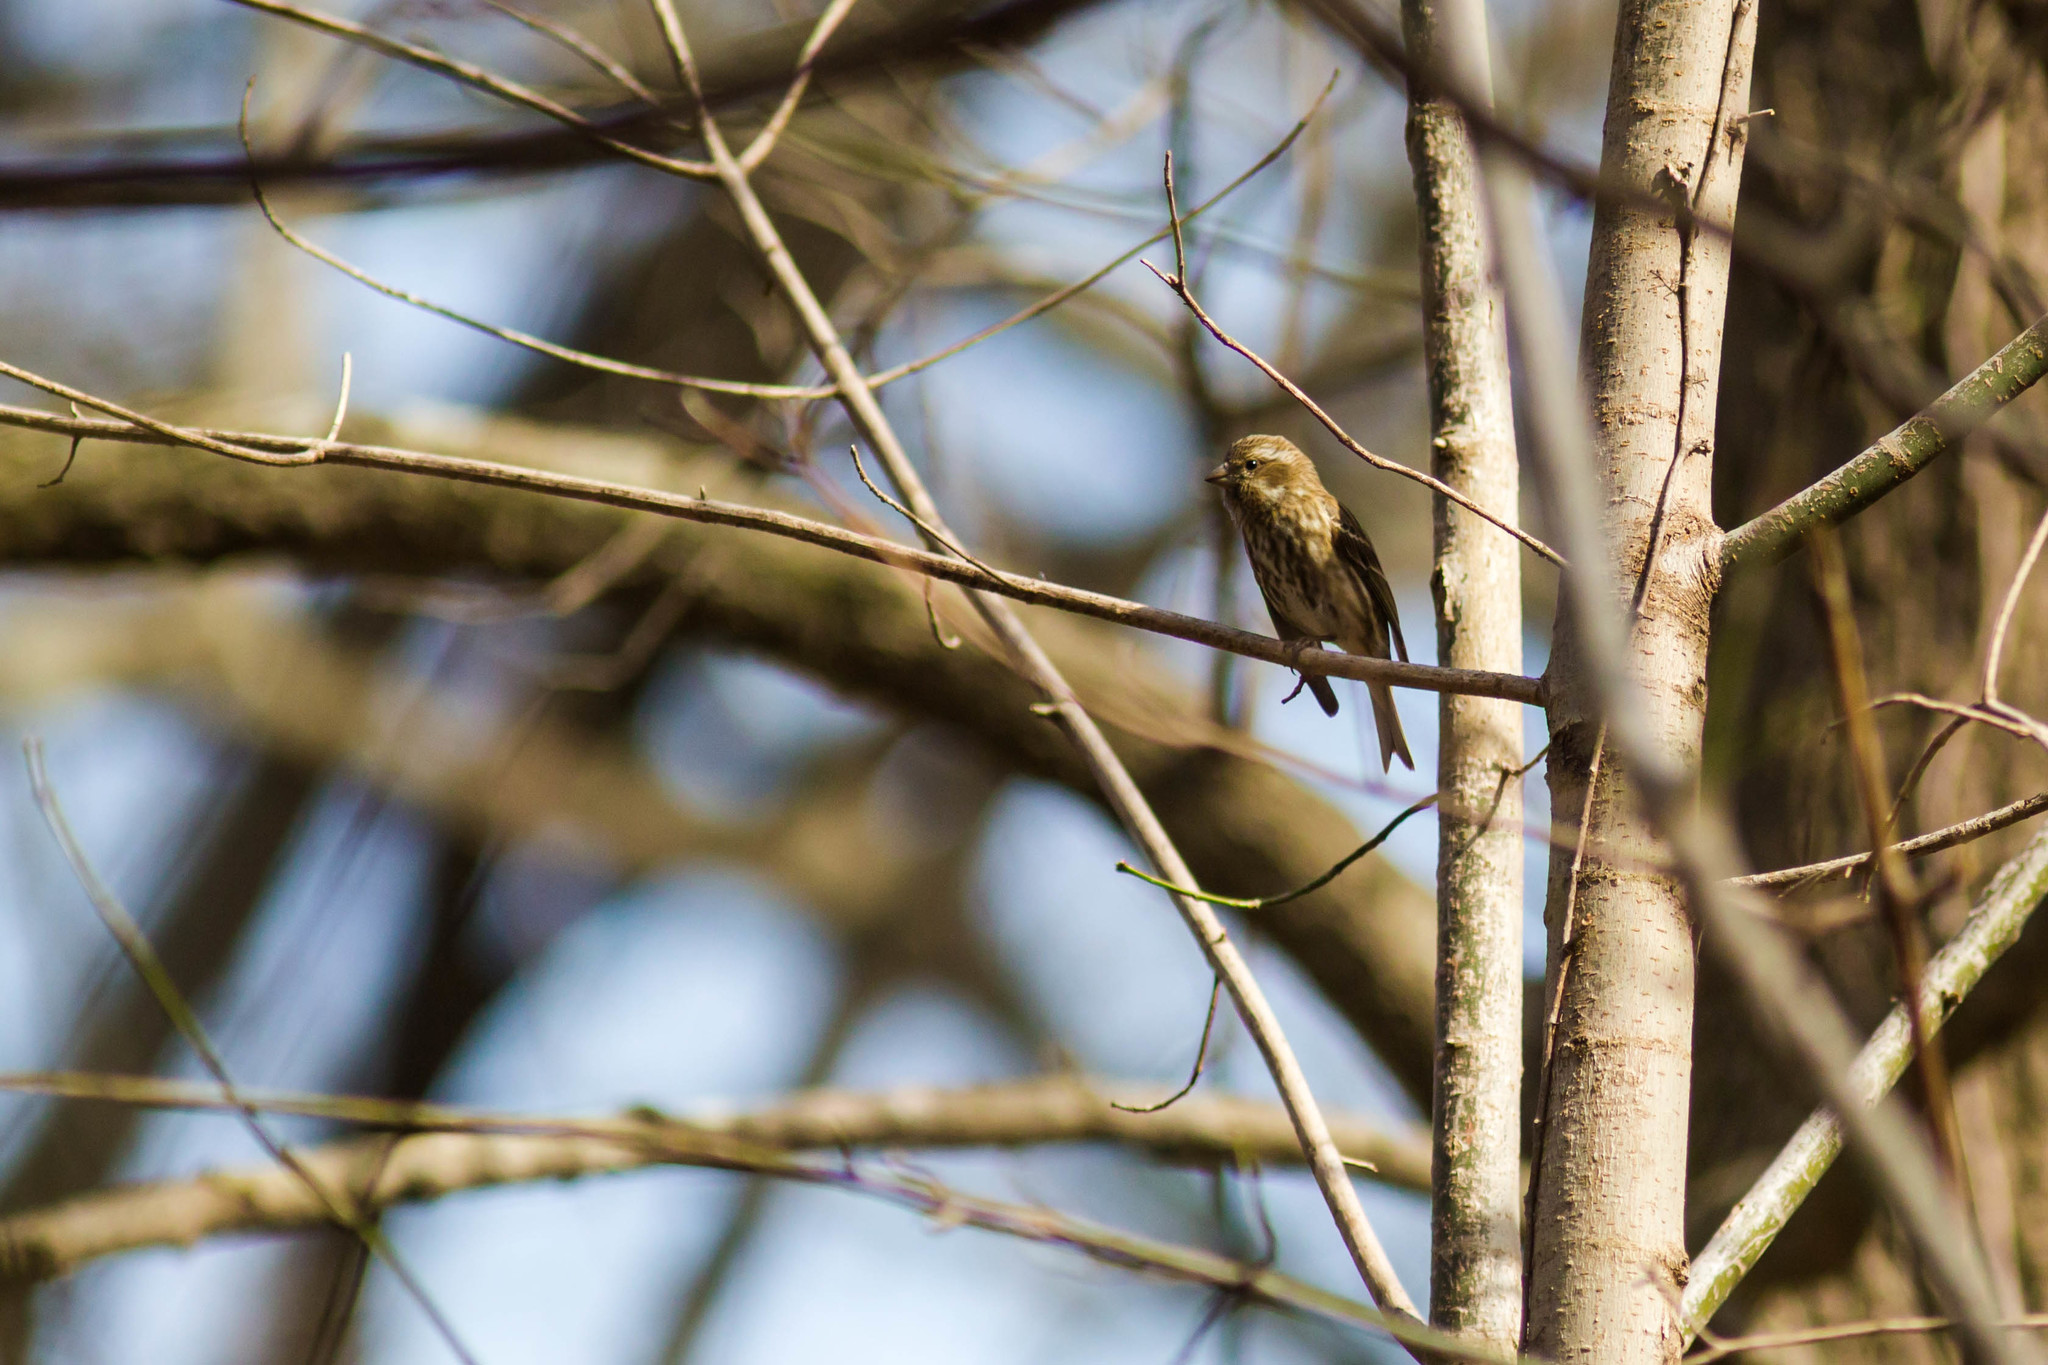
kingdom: Animalia
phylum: Chordata
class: Aves
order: Passeriformes
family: Fringillidae
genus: Haemorhous
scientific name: Haemorhous purpureus
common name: Purple finch
